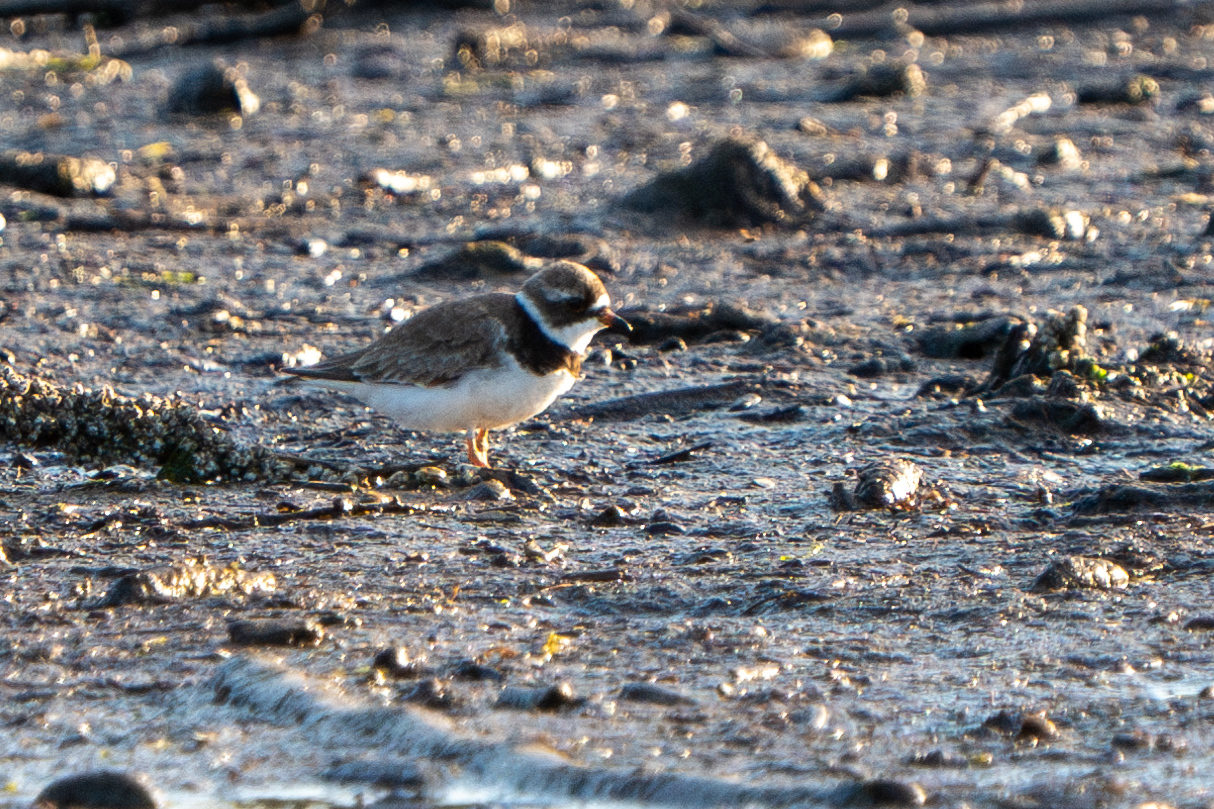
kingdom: Animalia
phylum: Chordata
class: Aves
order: Charadriiformes
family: Charadriidae
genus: Charadrius
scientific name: Charadrius semipalmatus
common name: Semipalmated plover
